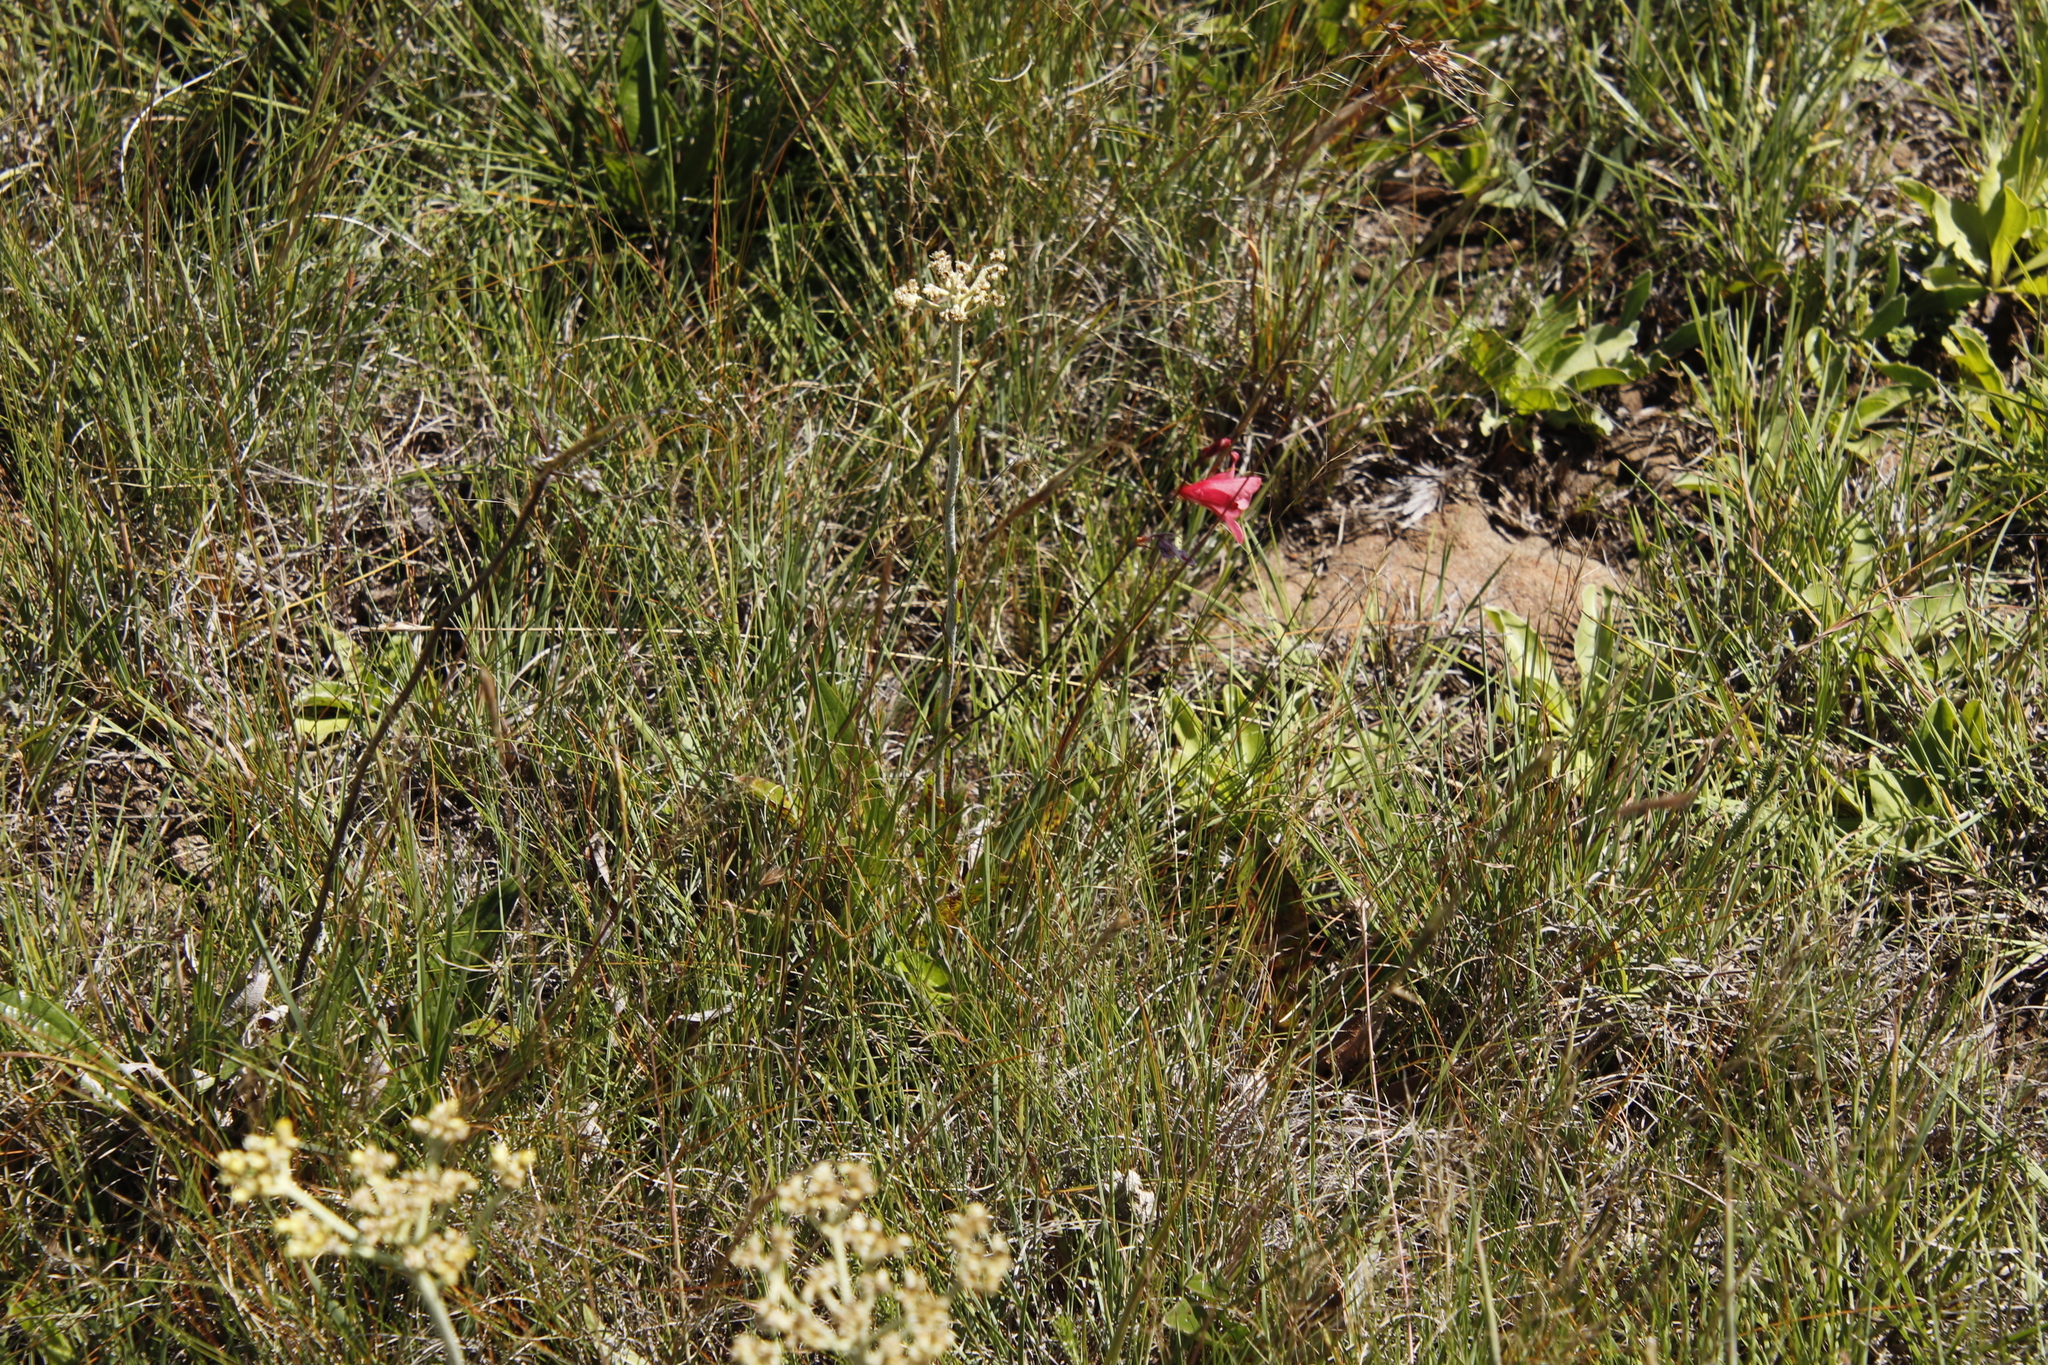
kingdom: Plantae
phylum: Tracheophyta
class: Liliopsida
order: Asparagales
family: Iridaceae
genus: Tritonia
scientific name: Tritonia drakensbergensis
